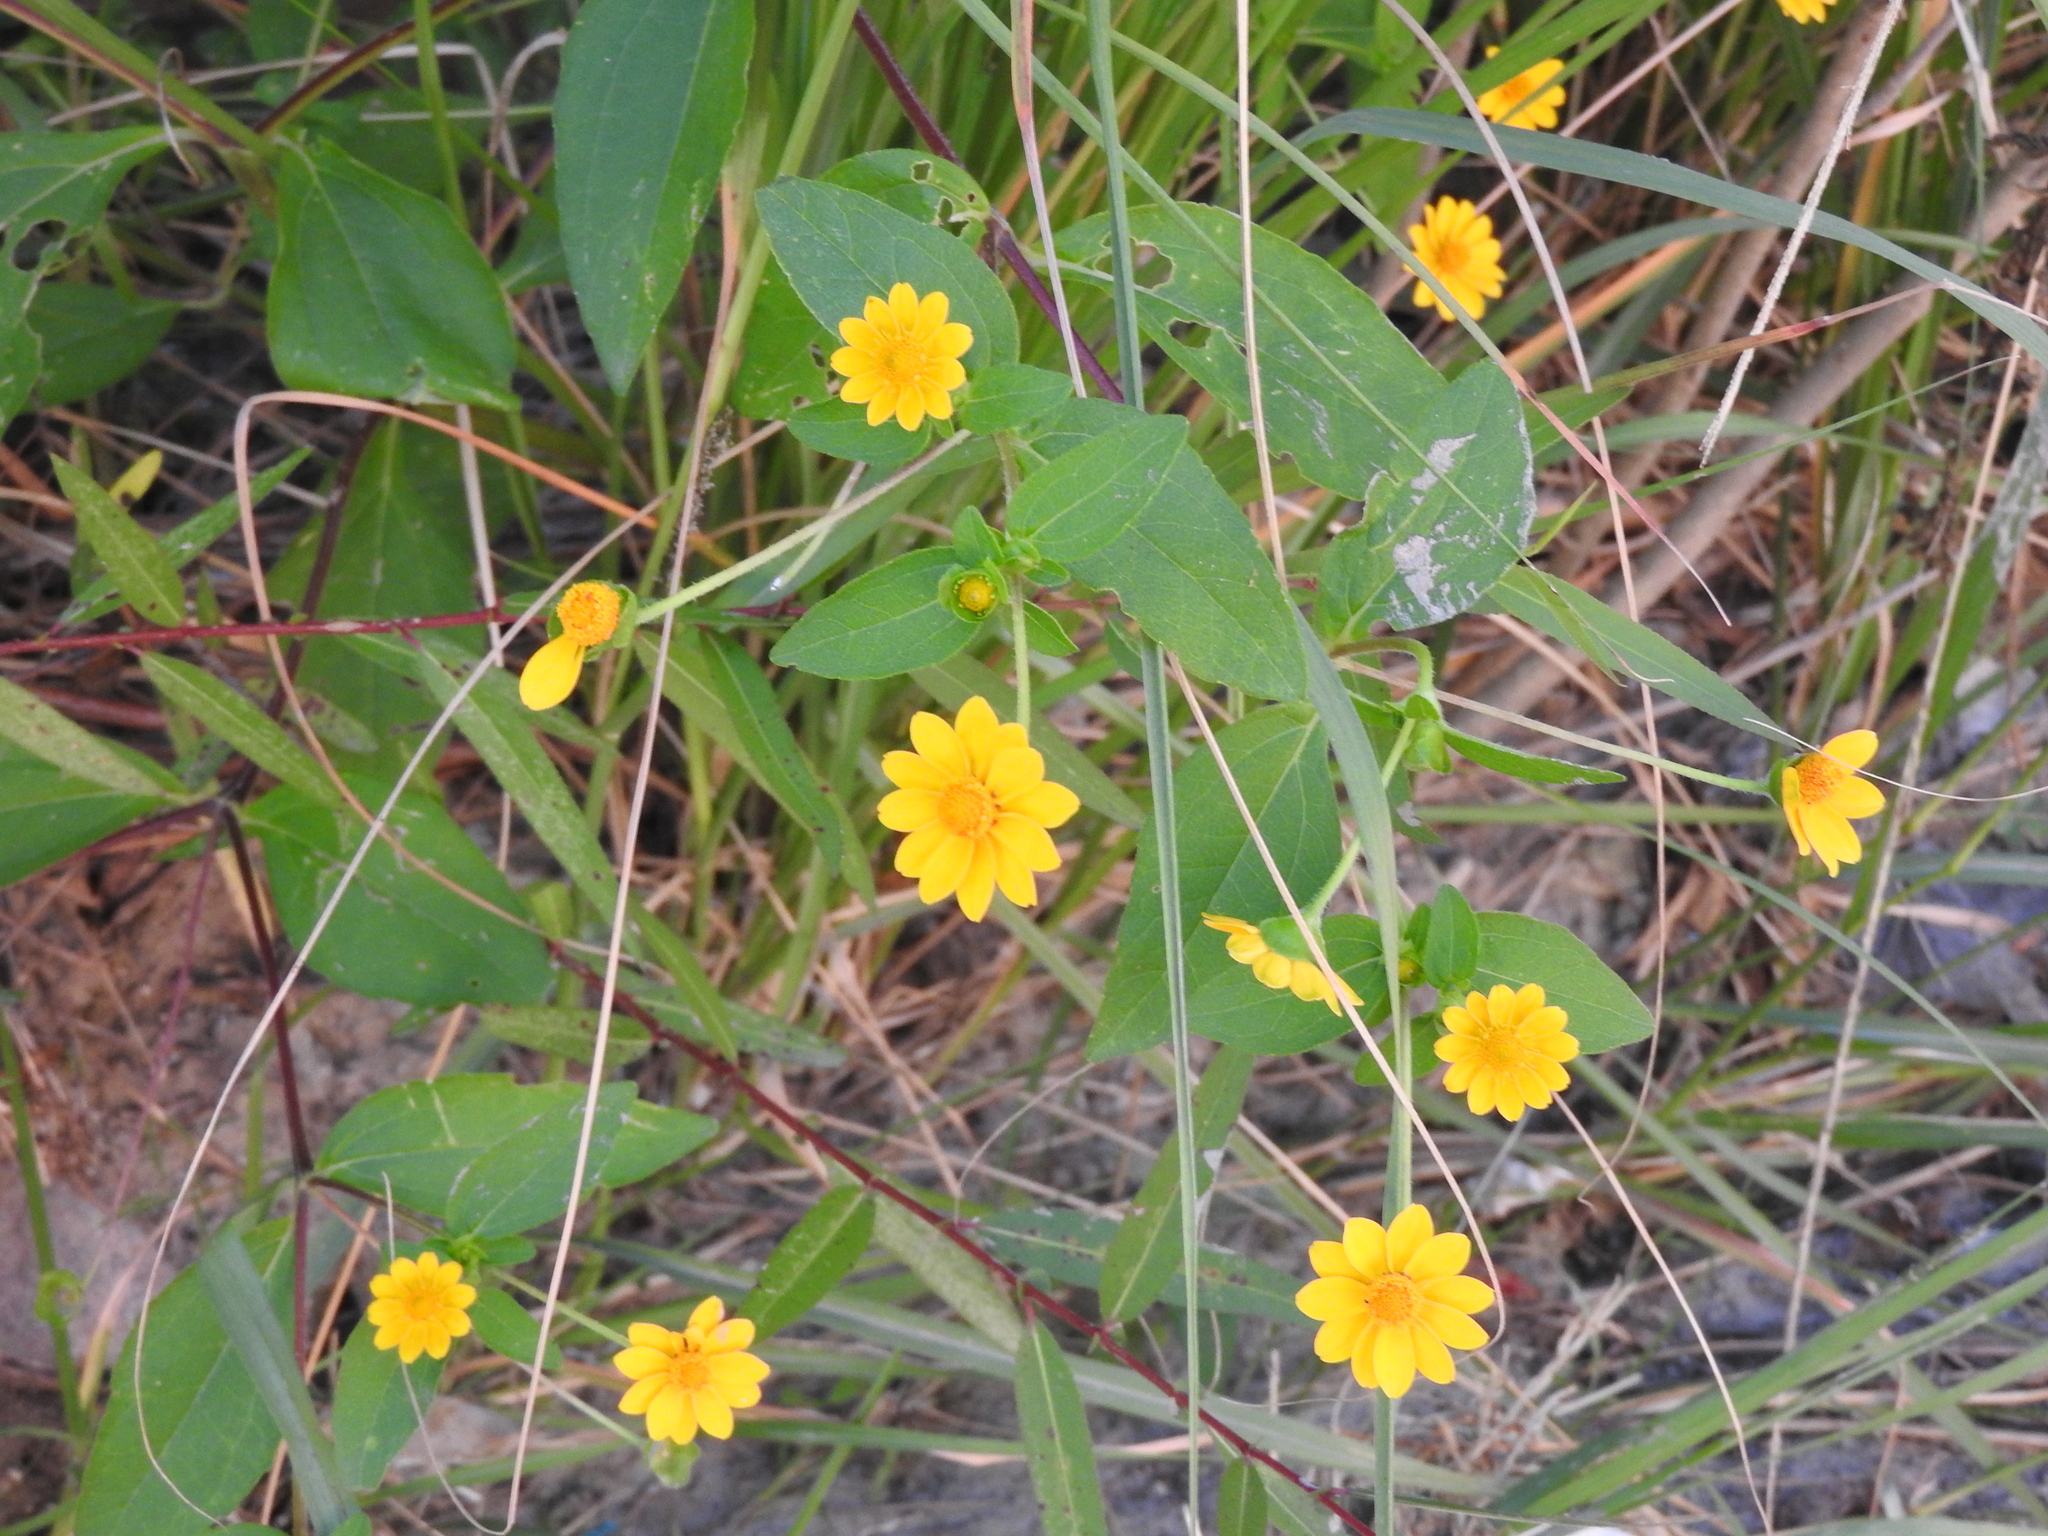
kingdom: Plantae
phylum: Tracheophyta
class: Magnoliopsida
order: Asterales
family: Asteraceae
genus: Melampodium
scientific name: Melampodium divaricatum
